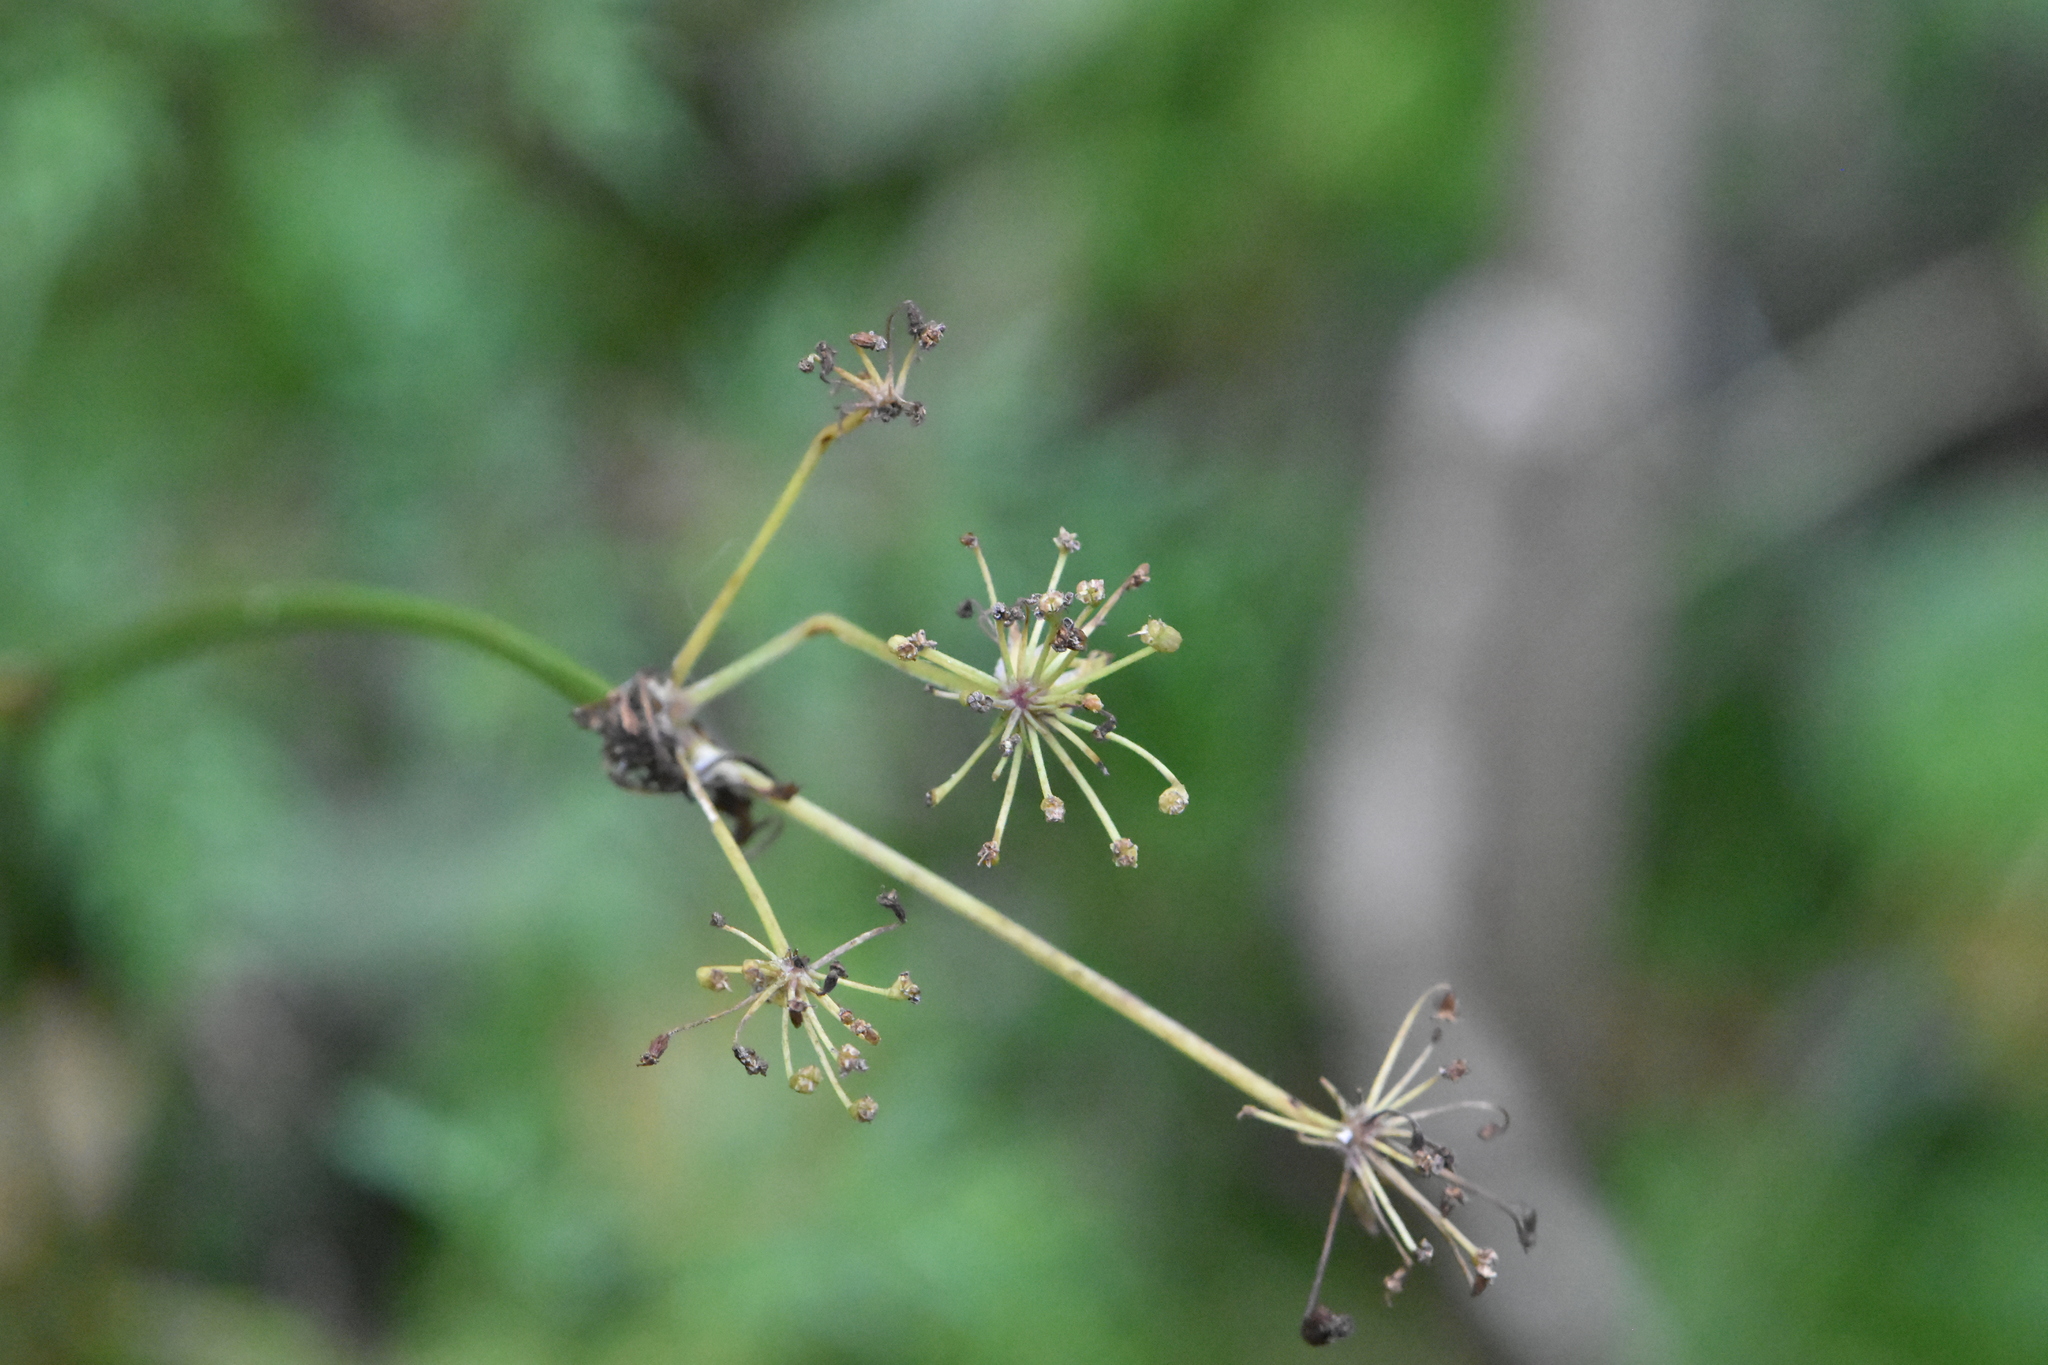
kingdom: Plantae
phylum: Tracheophyta
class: Magnoliopsida
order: Apiales
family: Apiaceae
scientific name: Apiaceae
